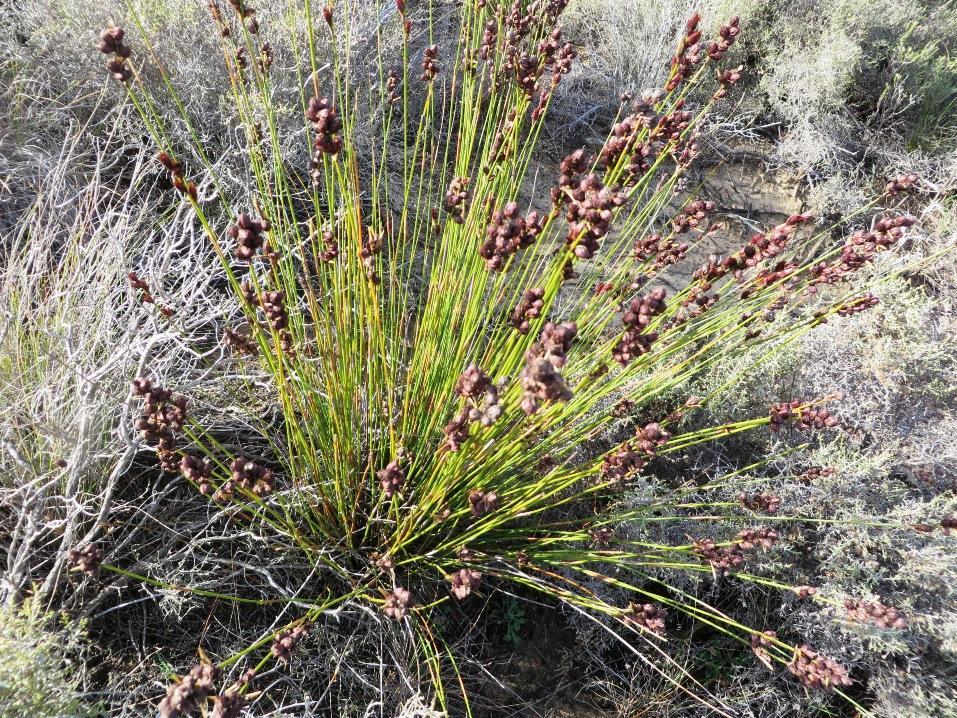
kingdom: Plantae
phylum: Tracheophyta
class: Liliopsida
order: Poales
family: Restionaceae
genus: Hypodiscus
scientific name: Hypodiscus laevigatus
